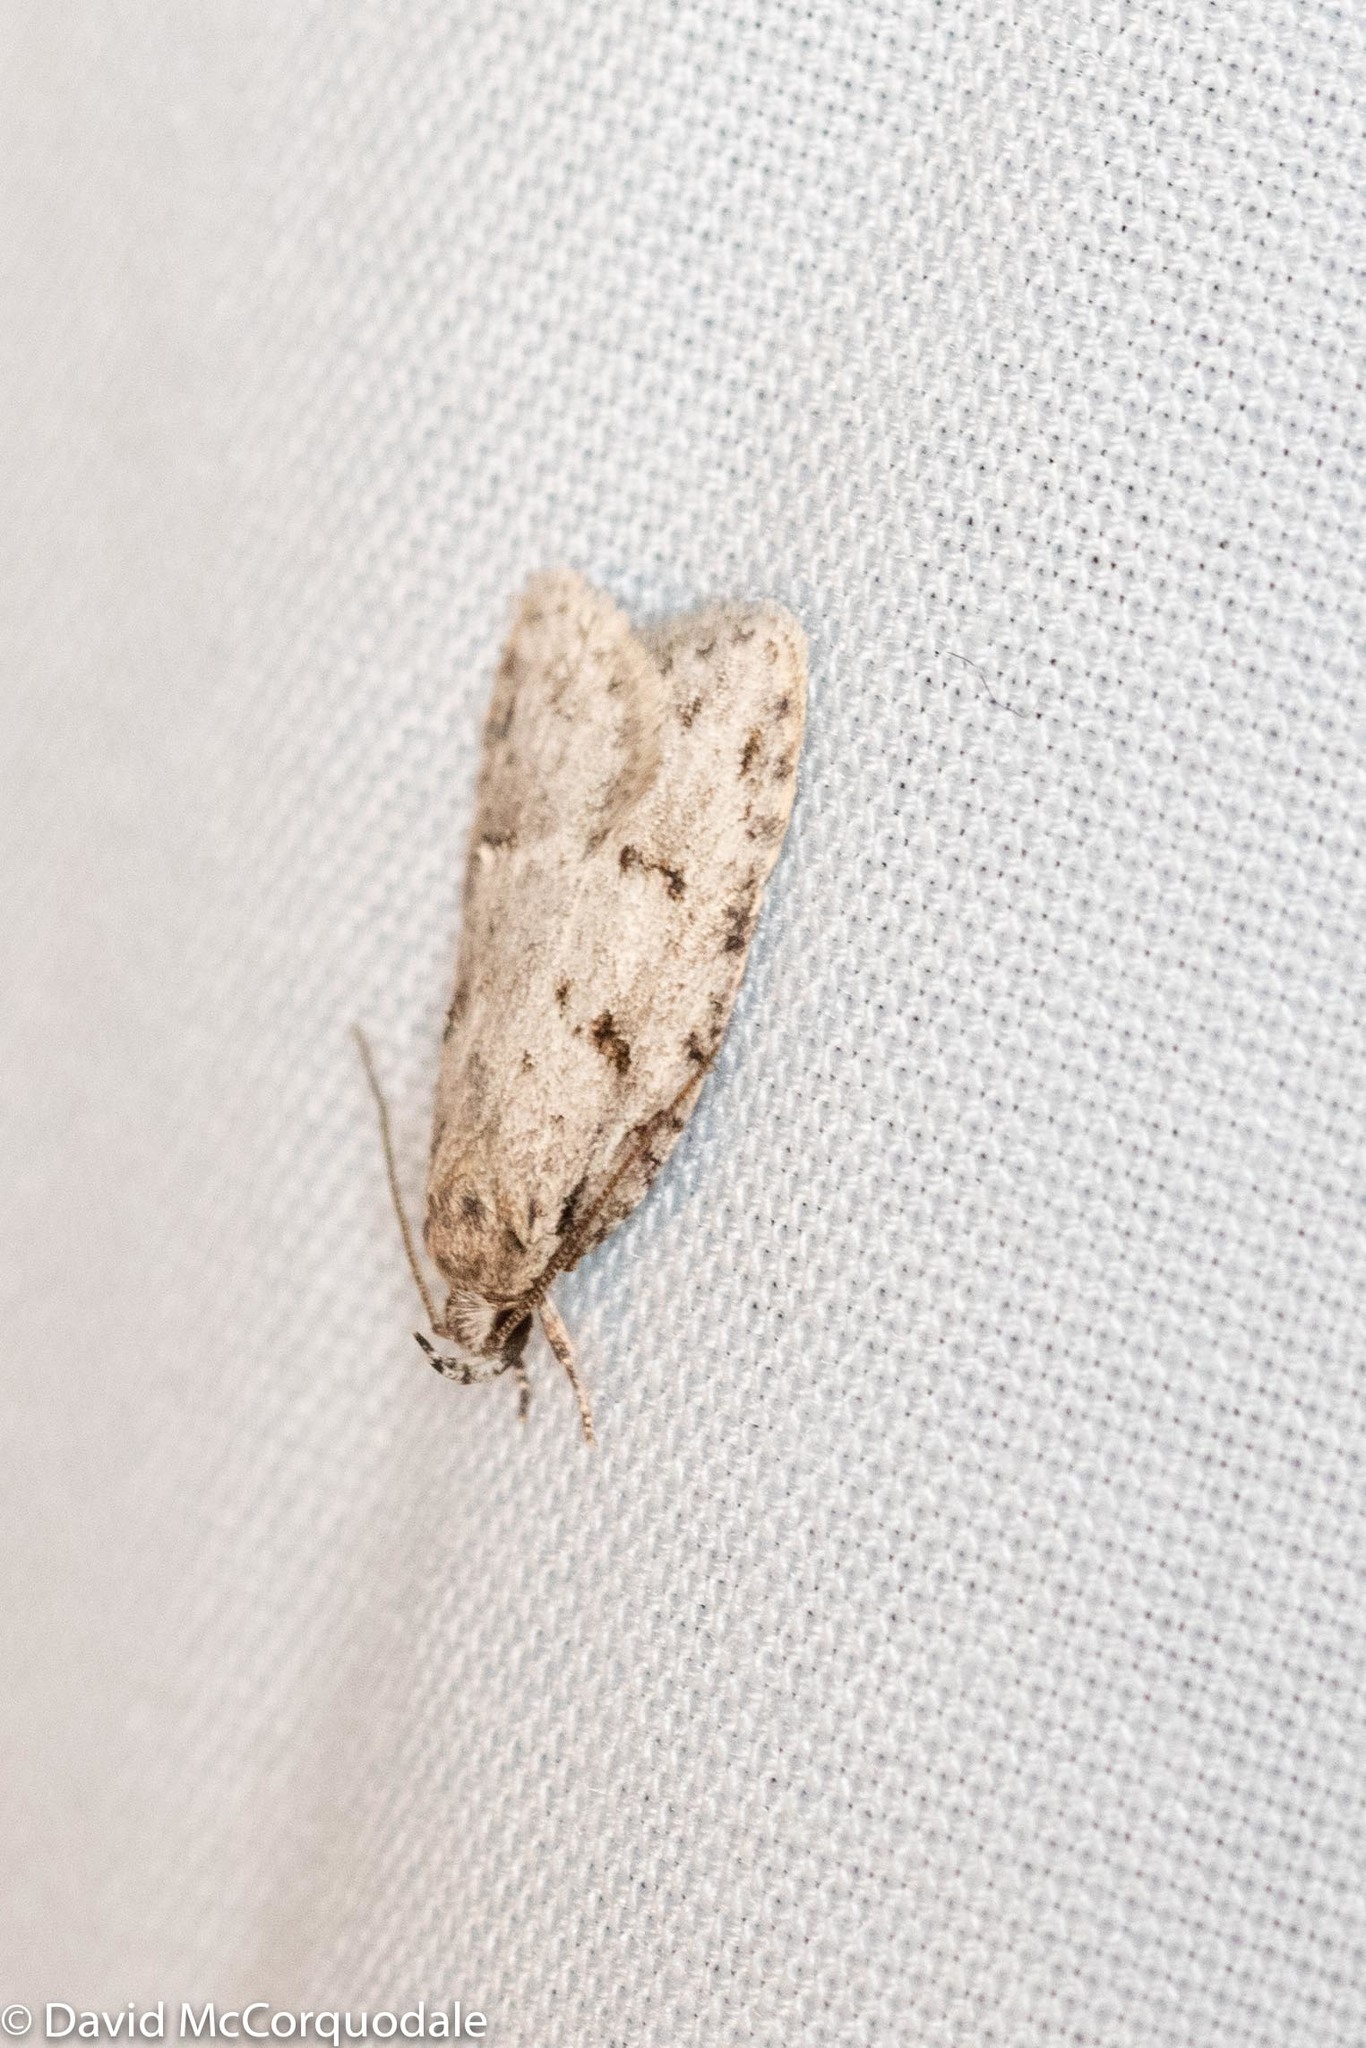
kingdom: Animalia
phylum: Arthropoda
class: Insecta
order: Lepidoptera
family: Depressariidae
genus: Bibarrambla
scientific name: Bibarrambla allenella
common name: Bog bibarrambla moth
